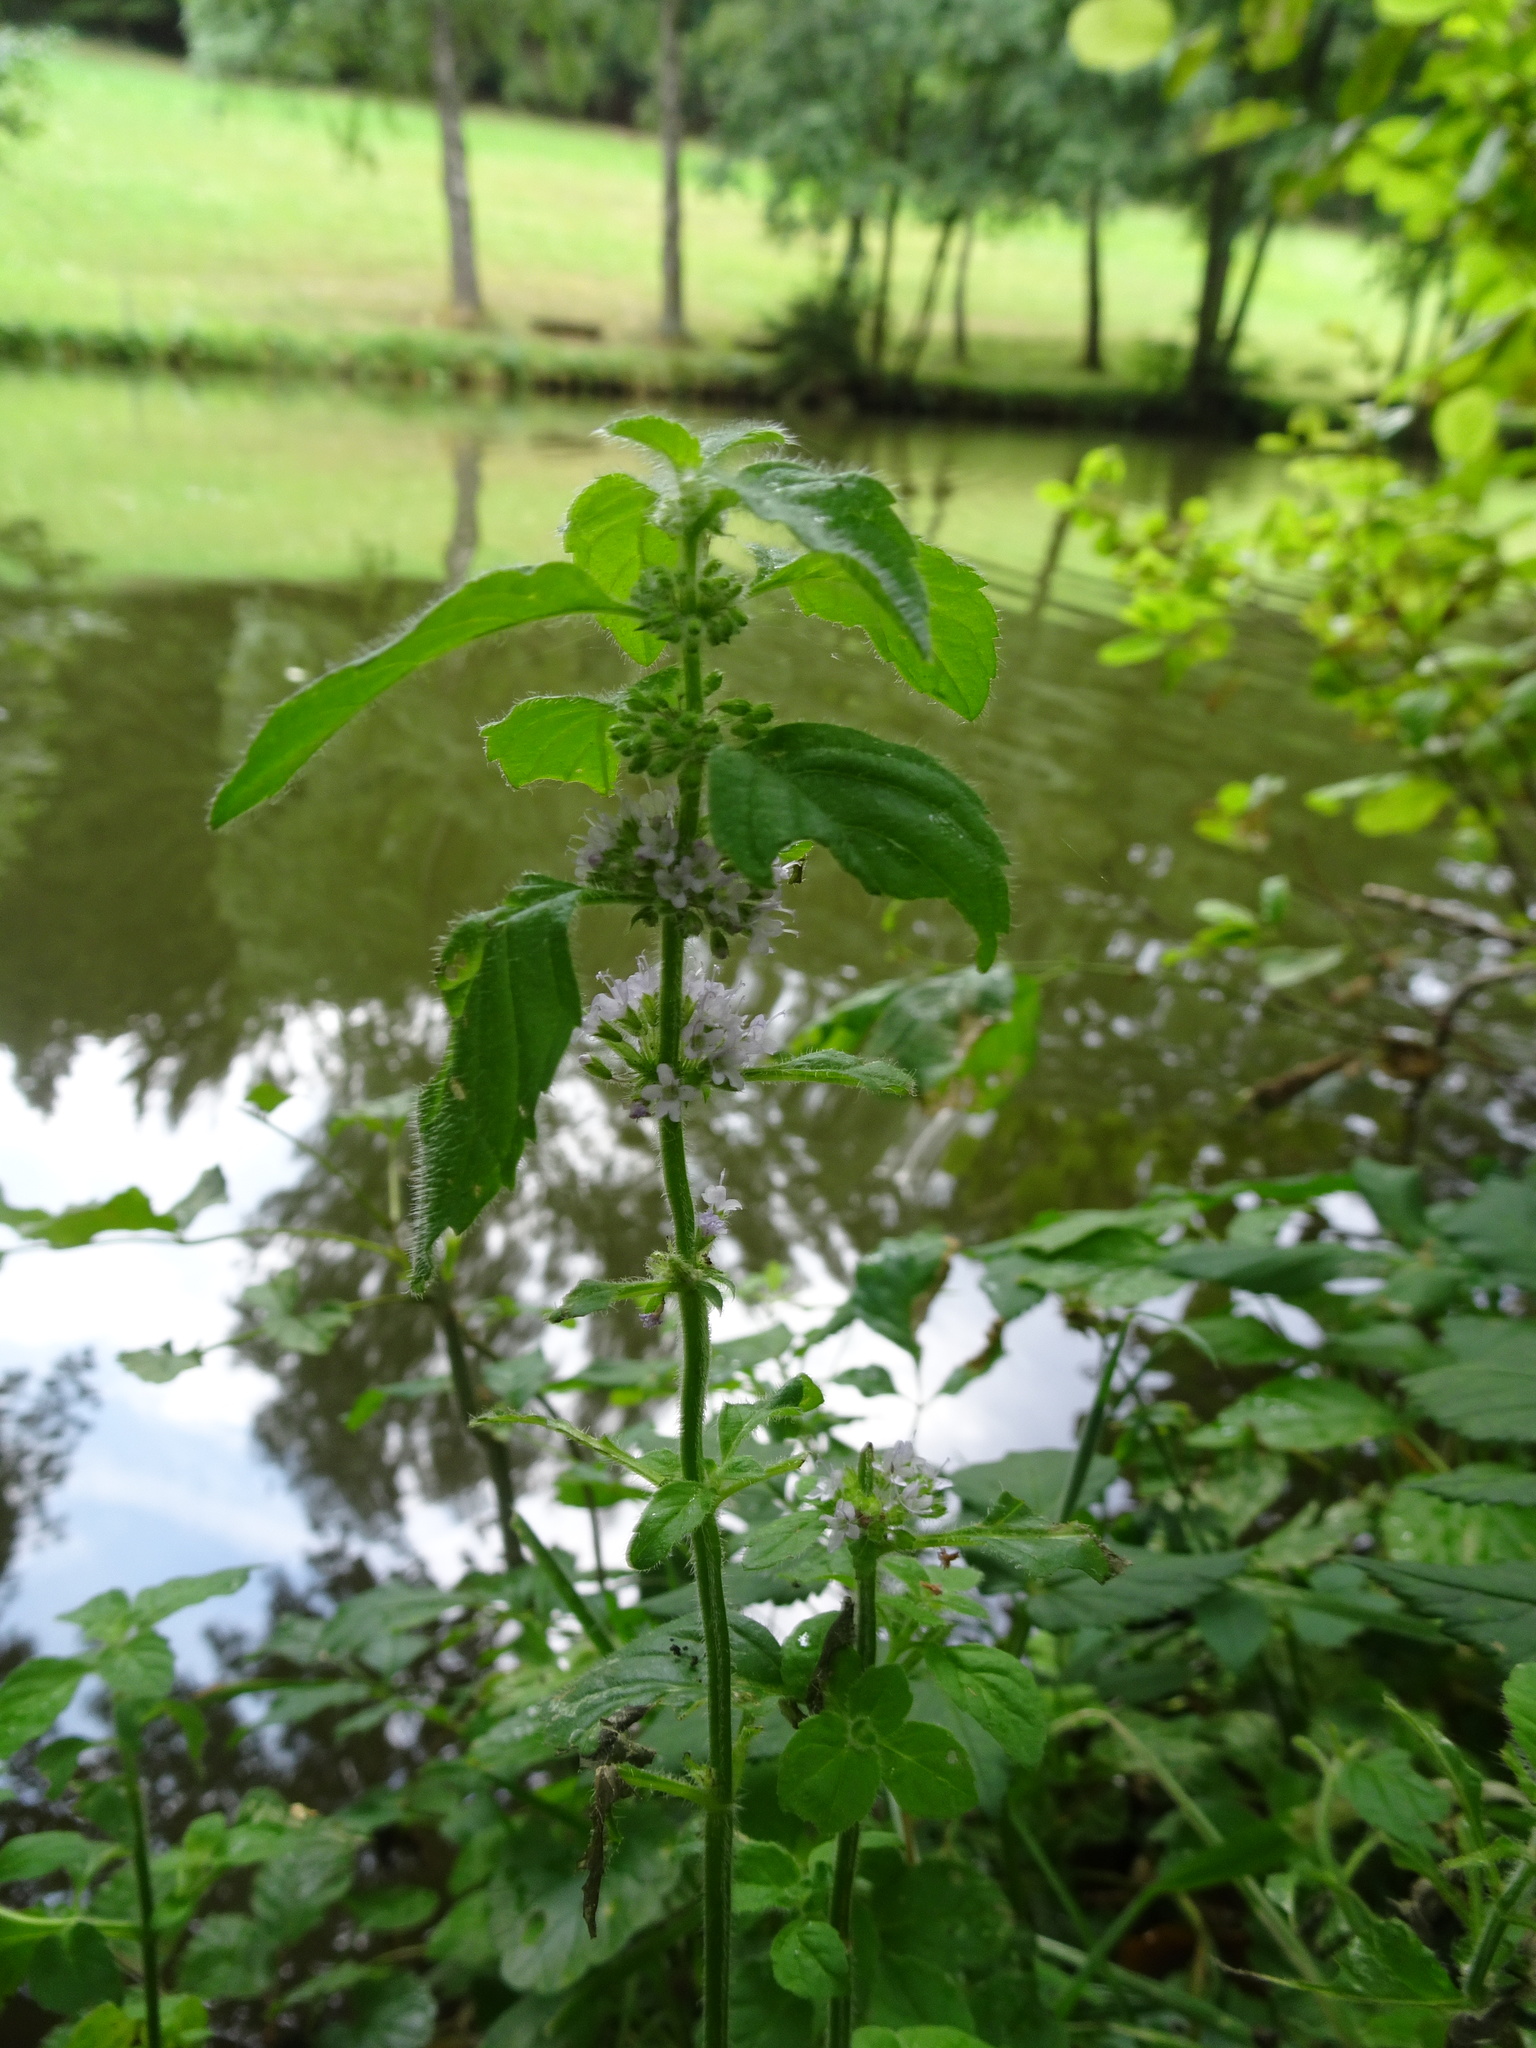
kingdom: Plantae
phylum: Tracheophyta
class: Magnoliopsida
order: Lamiales
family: Lamiaceae
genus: Mentha
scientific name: Mentha arvensis
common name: Corn mint
